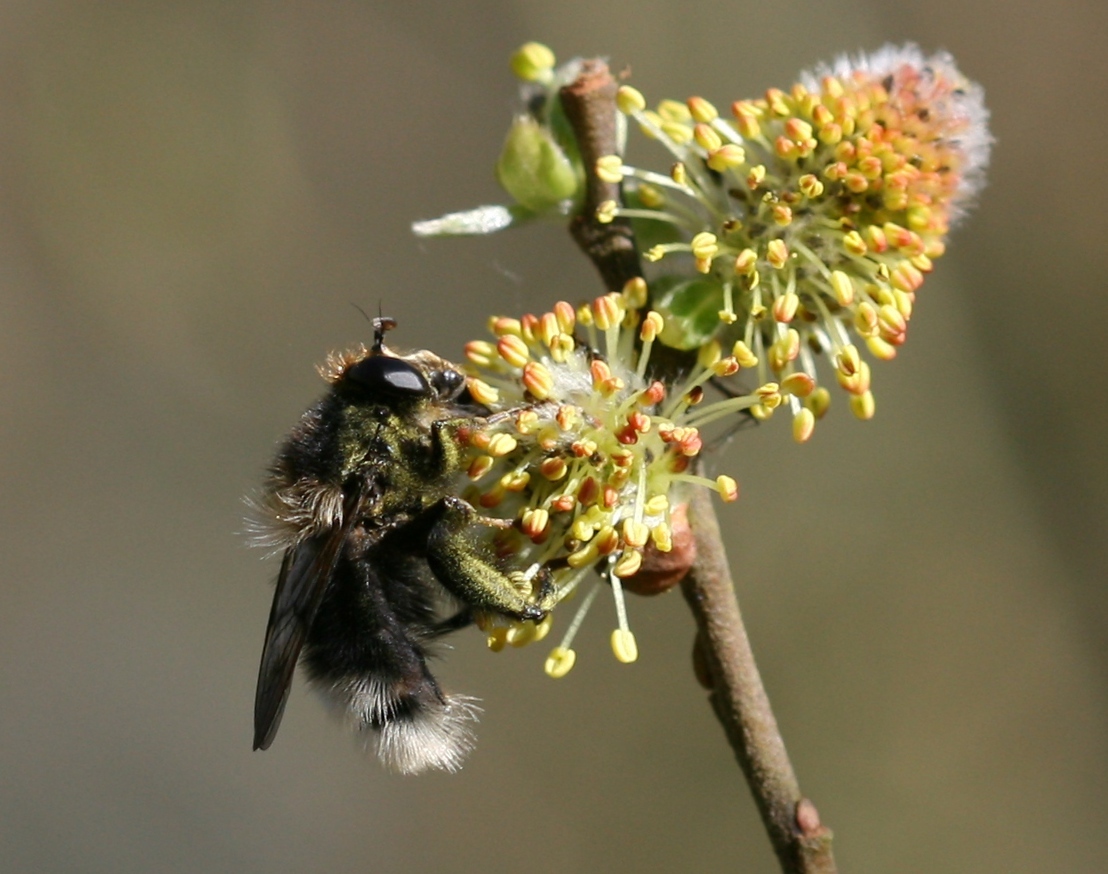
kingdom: Animalia
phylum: Arthropoda
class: Insecta
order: Diptera
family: Syrphidae
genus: Criorhina
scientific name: Criorhina ranunculi
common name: Large bear hoverfly
